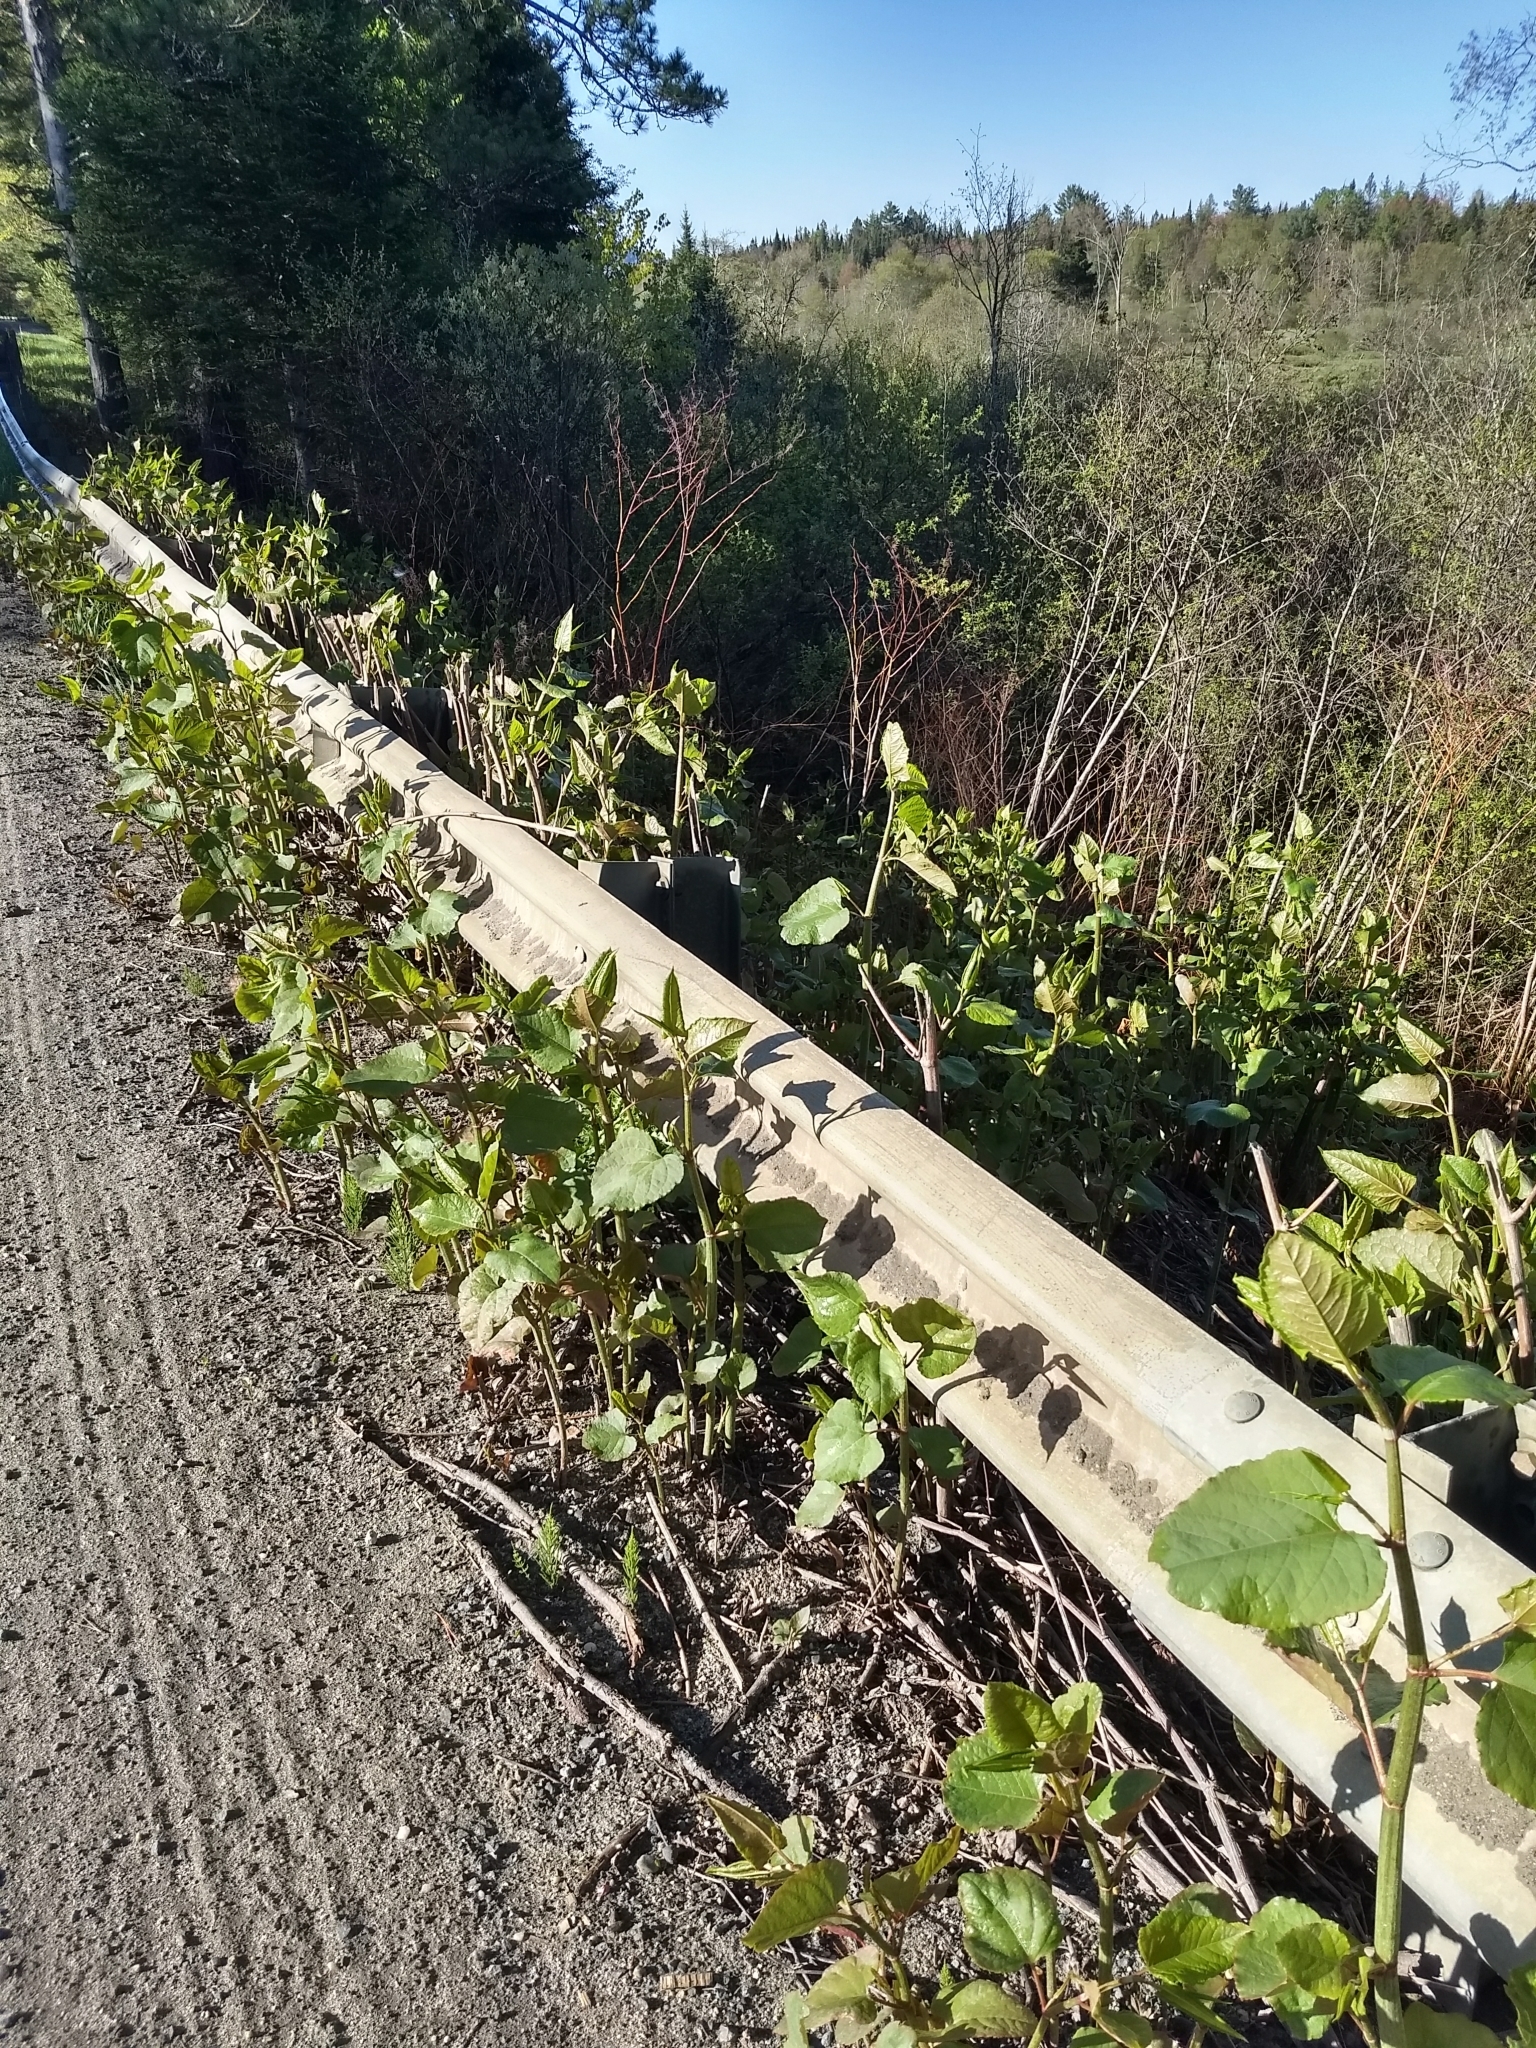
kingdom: Plantae
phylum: Tracheophyta
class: Magnoliopsida
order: Caryophyllales
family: Polygonaceae
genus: Reynoutria
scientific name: Reynoutria japonica
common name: Japanese knotweed
